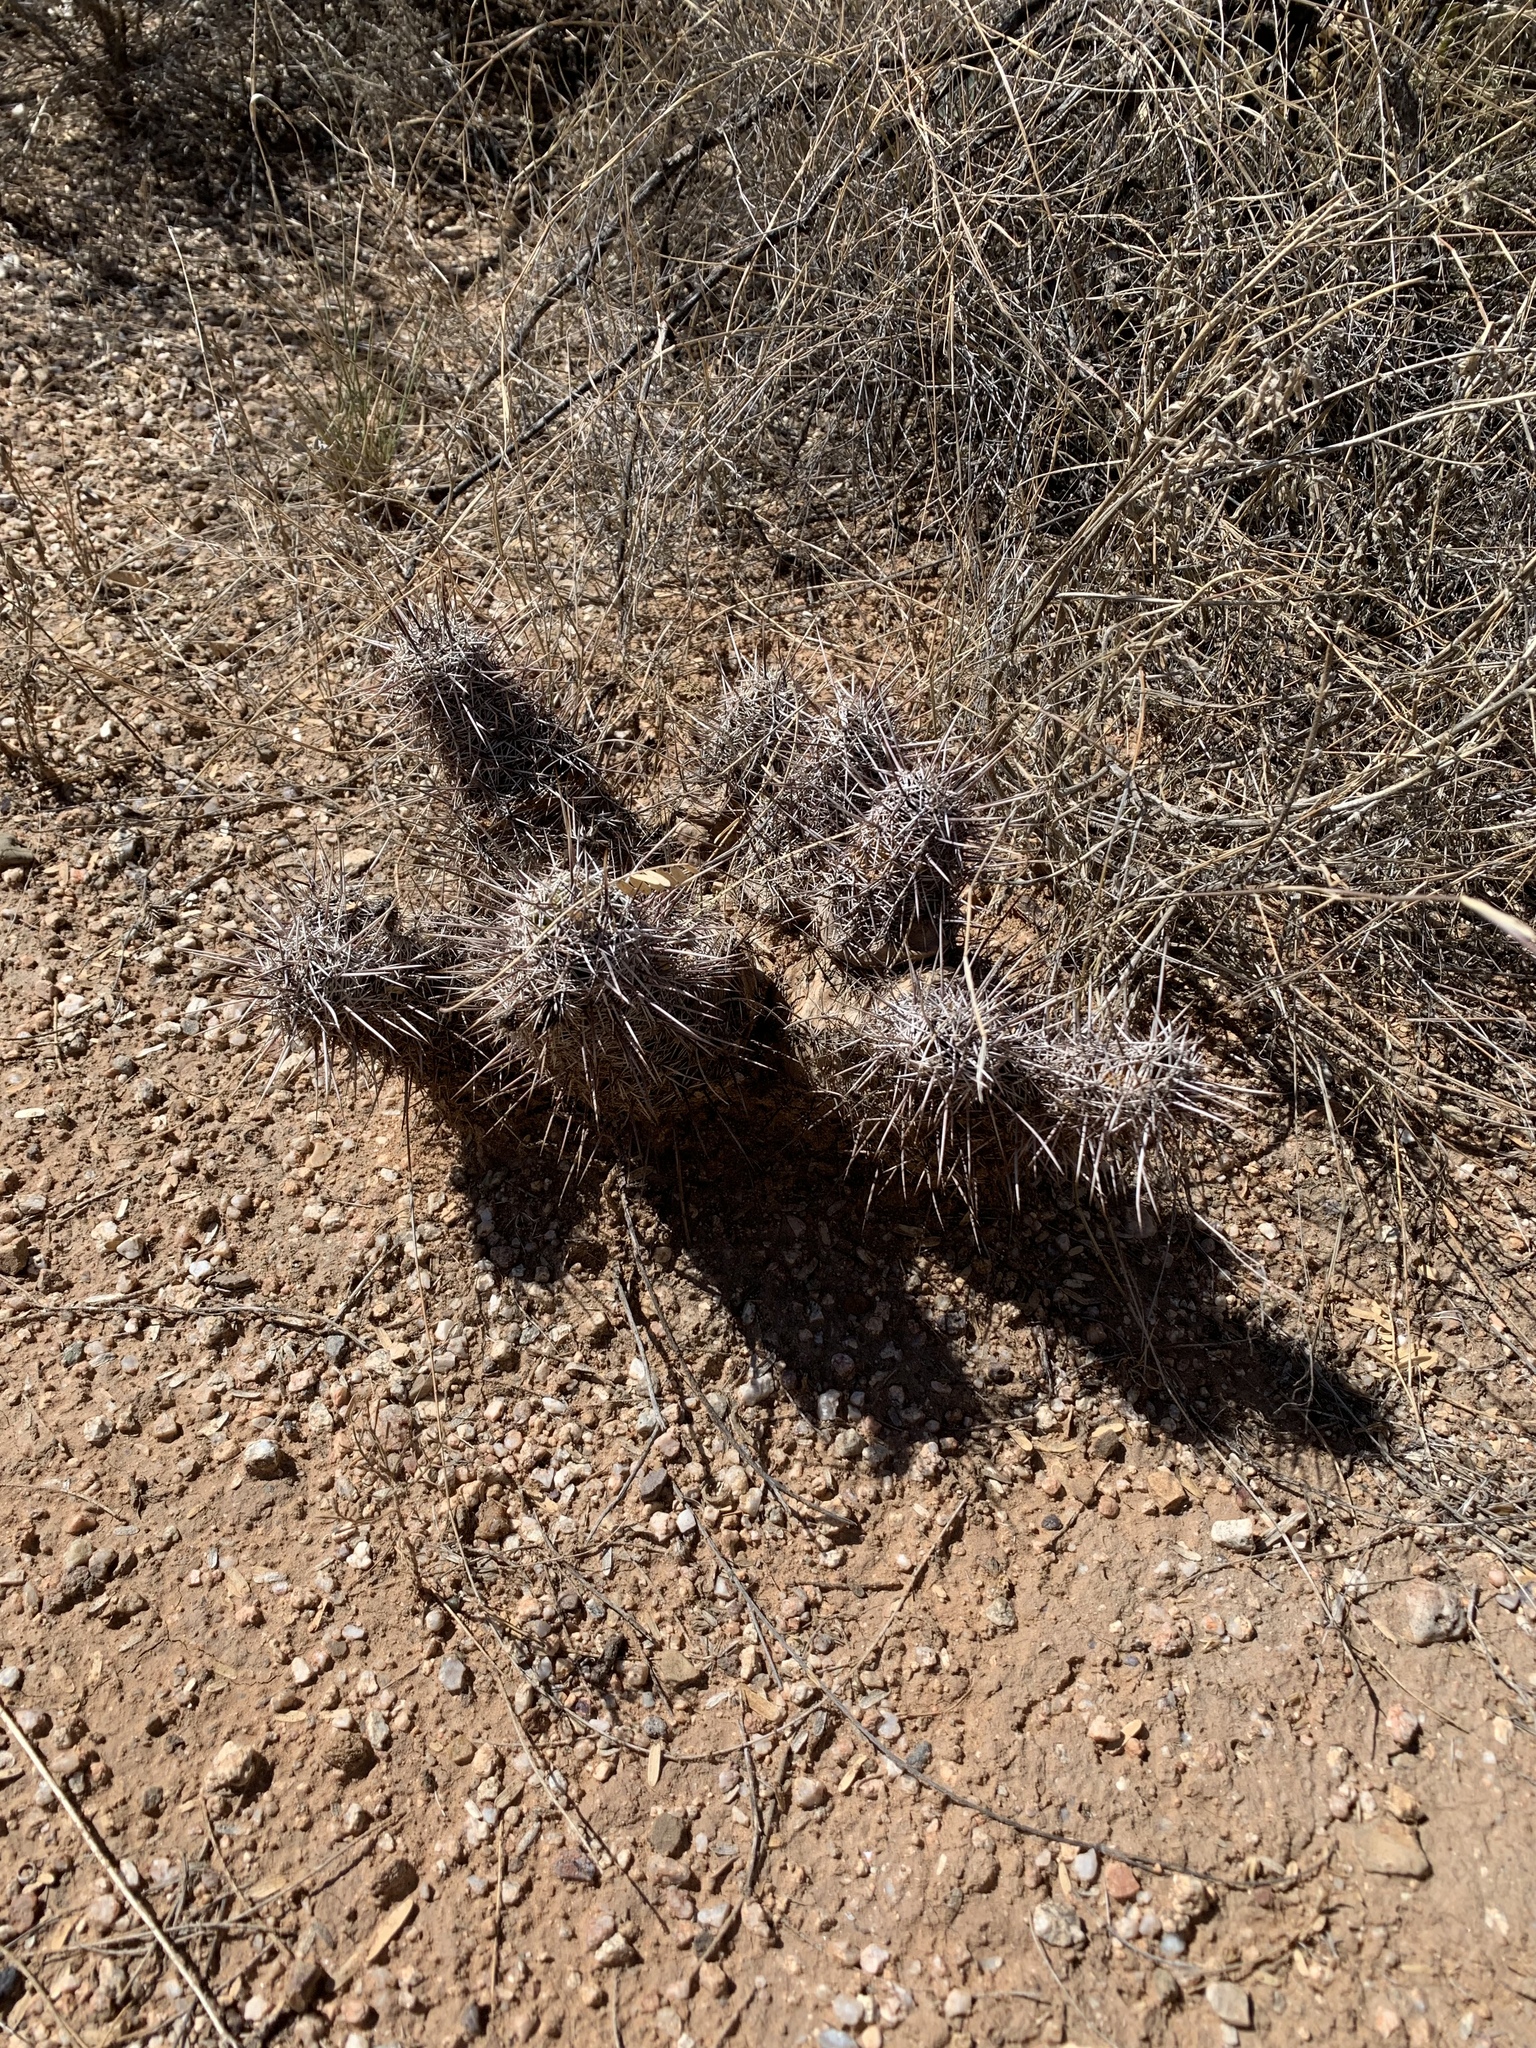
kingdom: Plantae
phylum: Tracheophyta
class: Magnoliopsida
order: Caryophyllales
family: Cactaceae
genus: Echinocereus
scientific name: Echinocereus fasciculatus
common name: Bundle hedgehog
